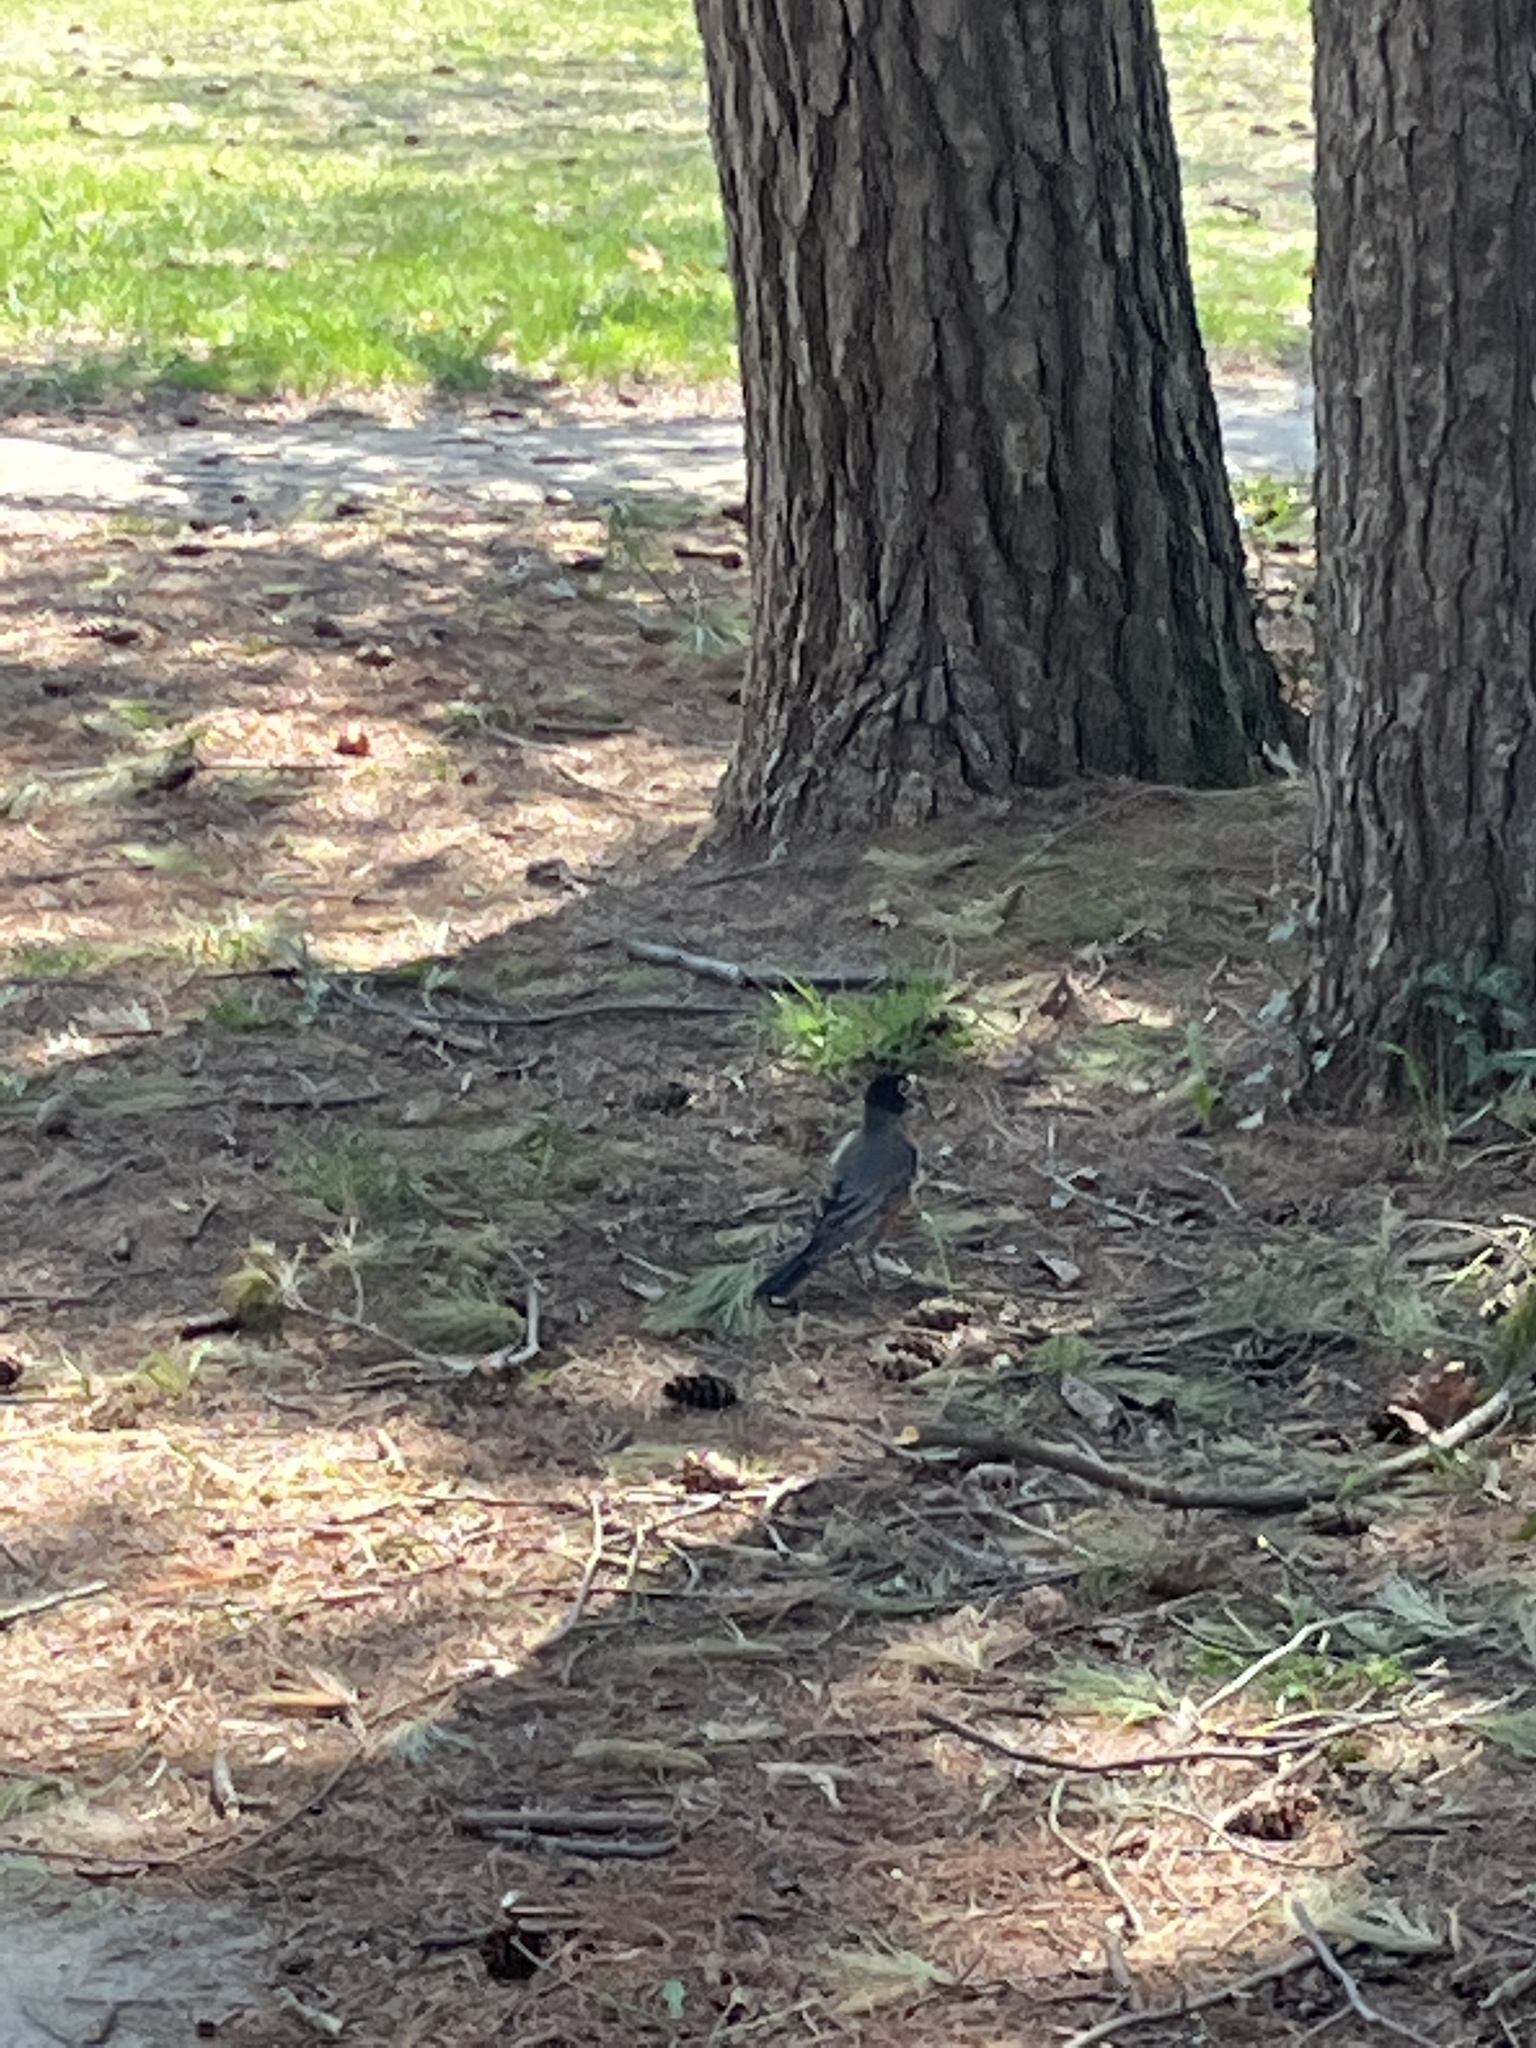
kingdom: Animalia
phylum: Chordata
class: Aves
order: Passeriformes
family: Turdidae
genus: Turdus
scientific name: Turdus migratorius
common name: American robin
